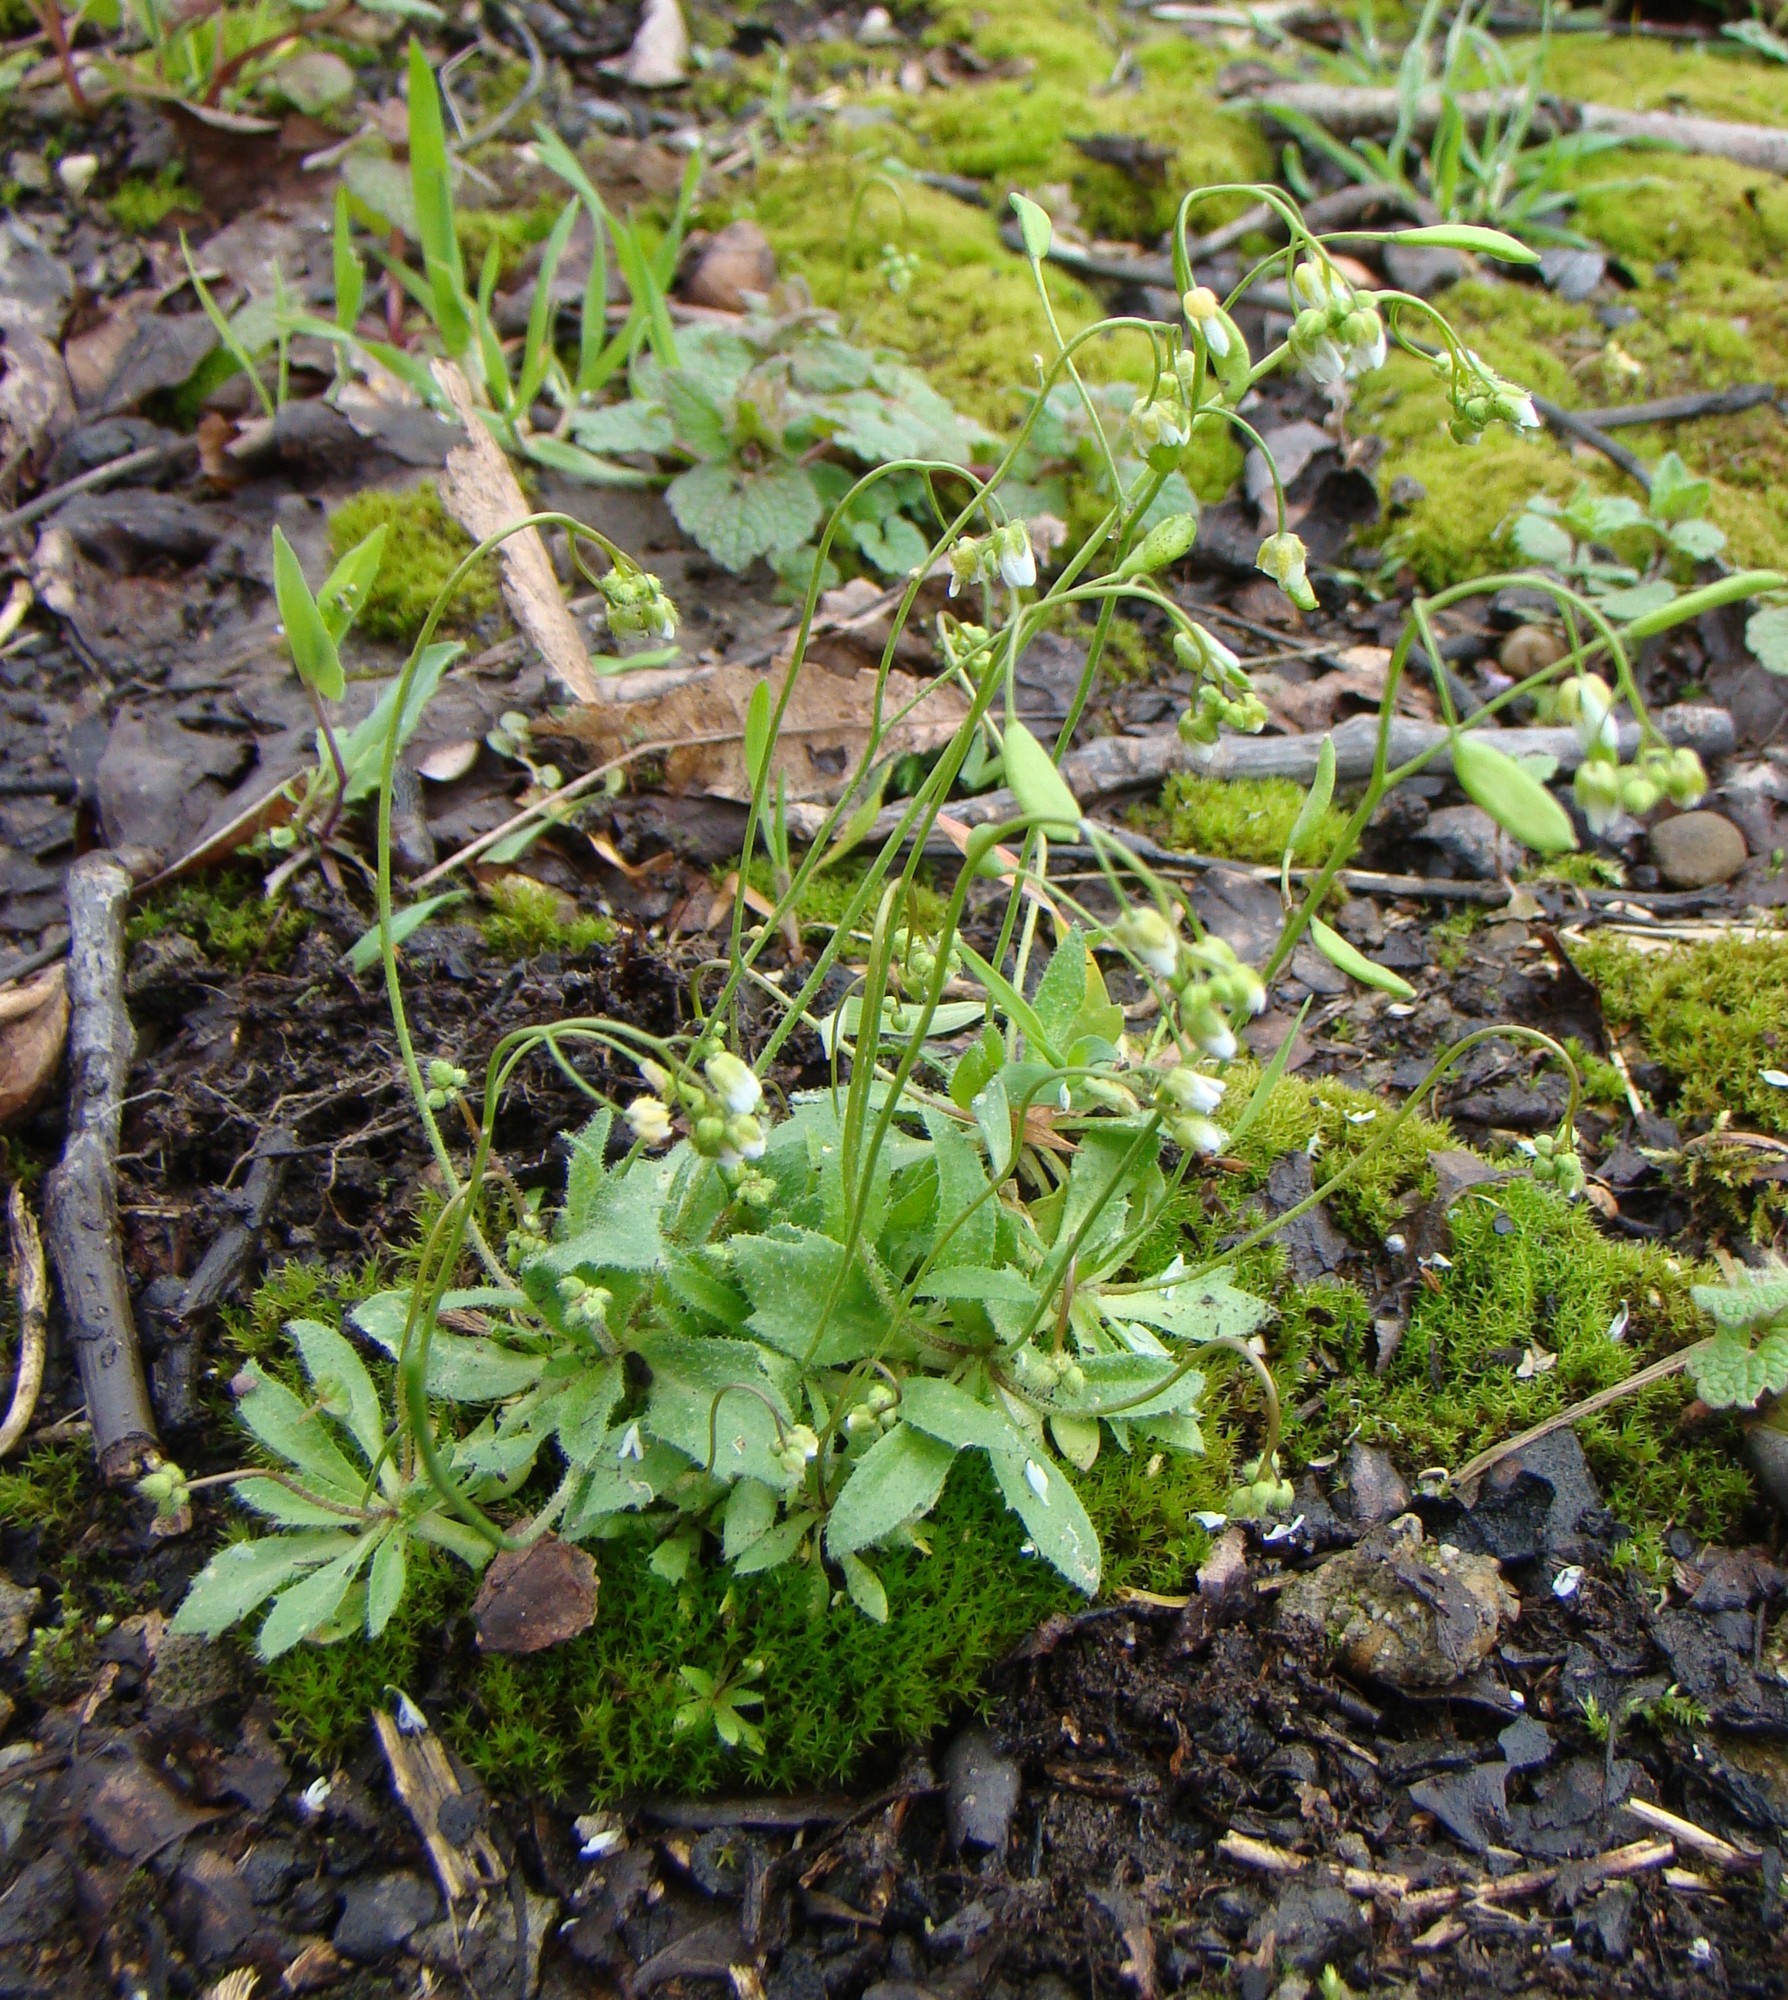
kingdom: Plantae
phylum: Tracheophyta
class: Magnoliopsida
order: Brassicales
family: Brassicaceae
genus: Draba
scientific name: Draba verna
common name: Spring draba
